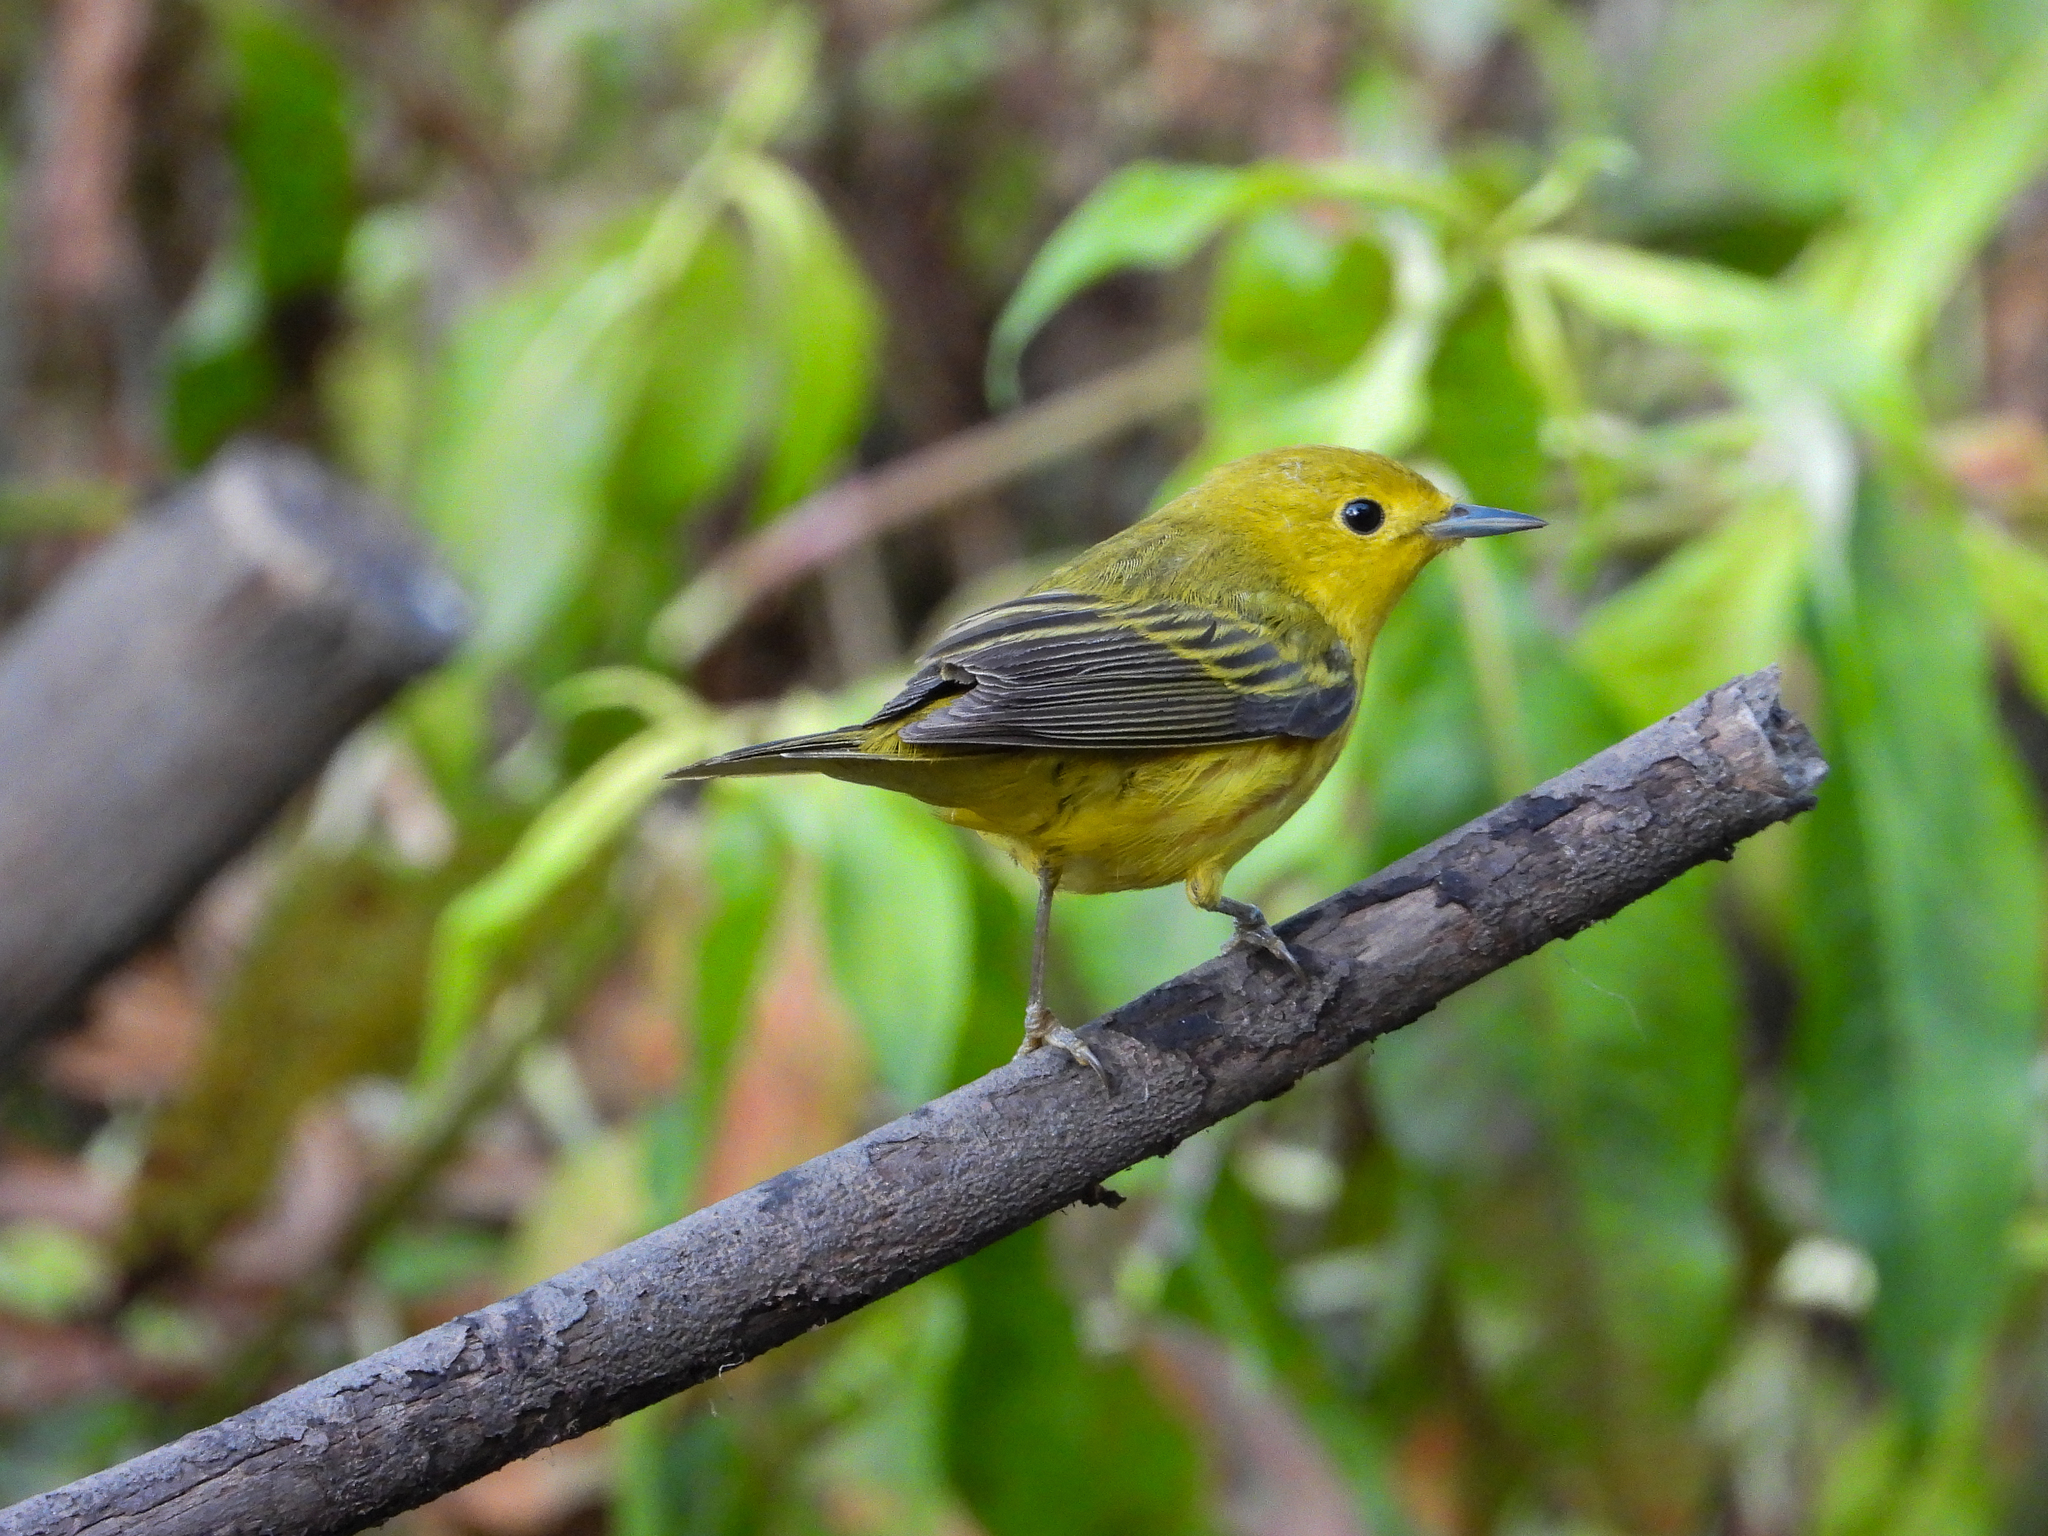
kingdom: Animalia
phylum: Chordata
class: Aves
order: Passeriformes
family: Parulidae
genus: Setophaga
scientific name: Setophaga petechia
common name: Yellow warbler
